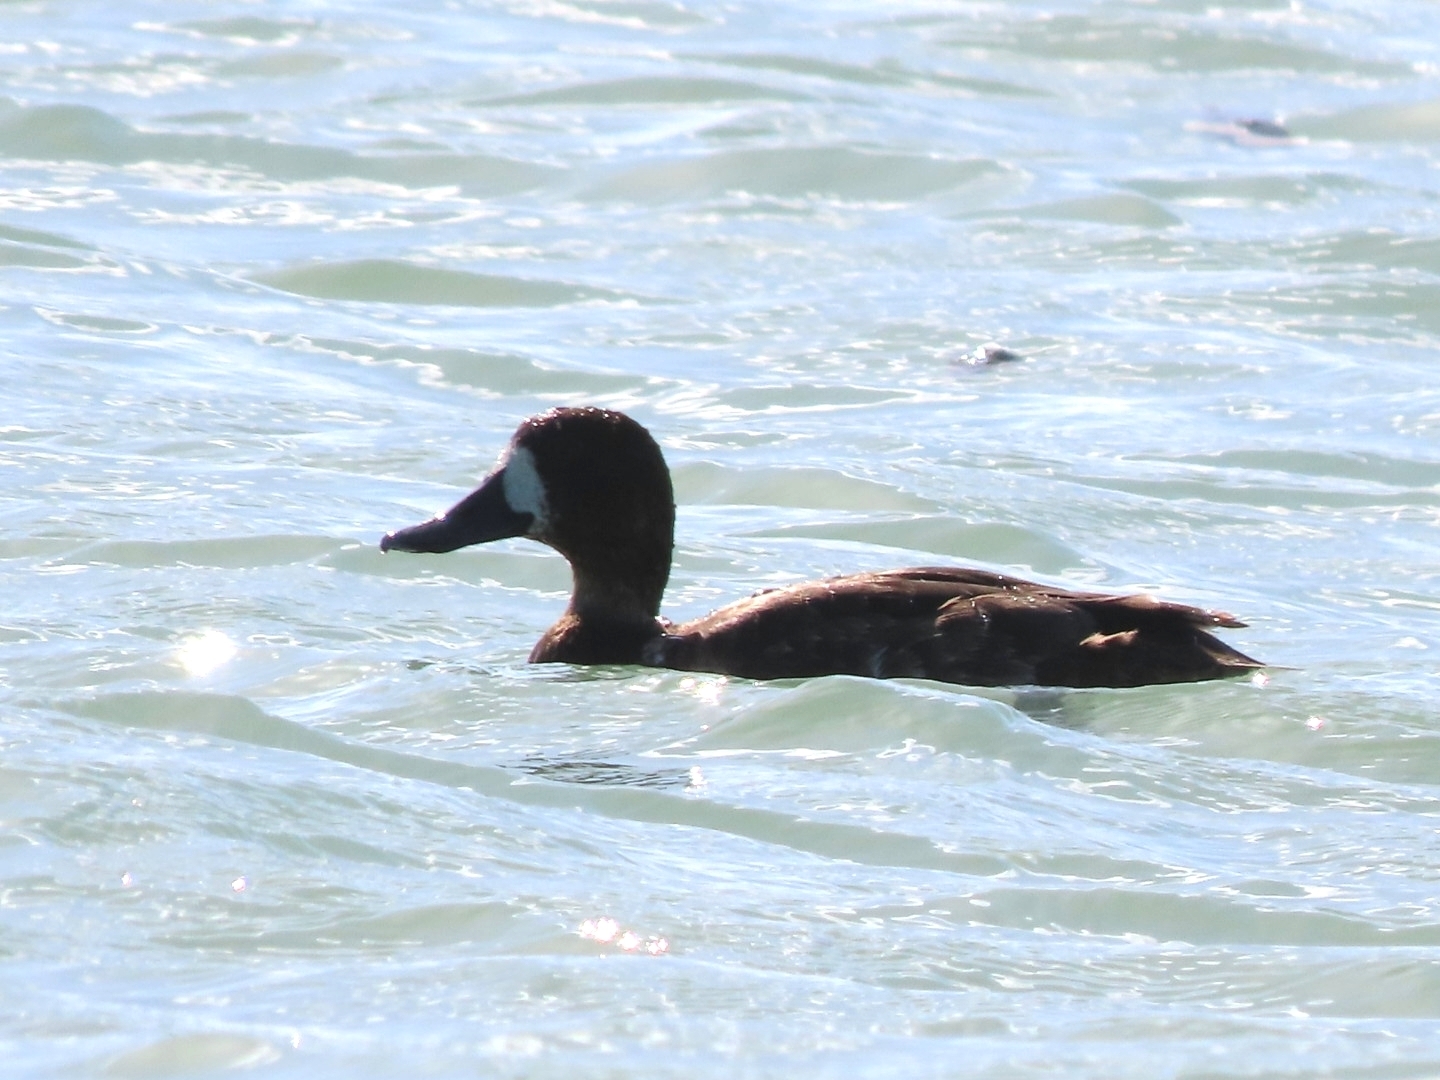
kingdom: Animalia
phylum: Chordata
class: Aves
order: Anseriformes
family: Anatidae
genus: Aythya
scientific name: Aythya affinis
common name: Lesser scaup
